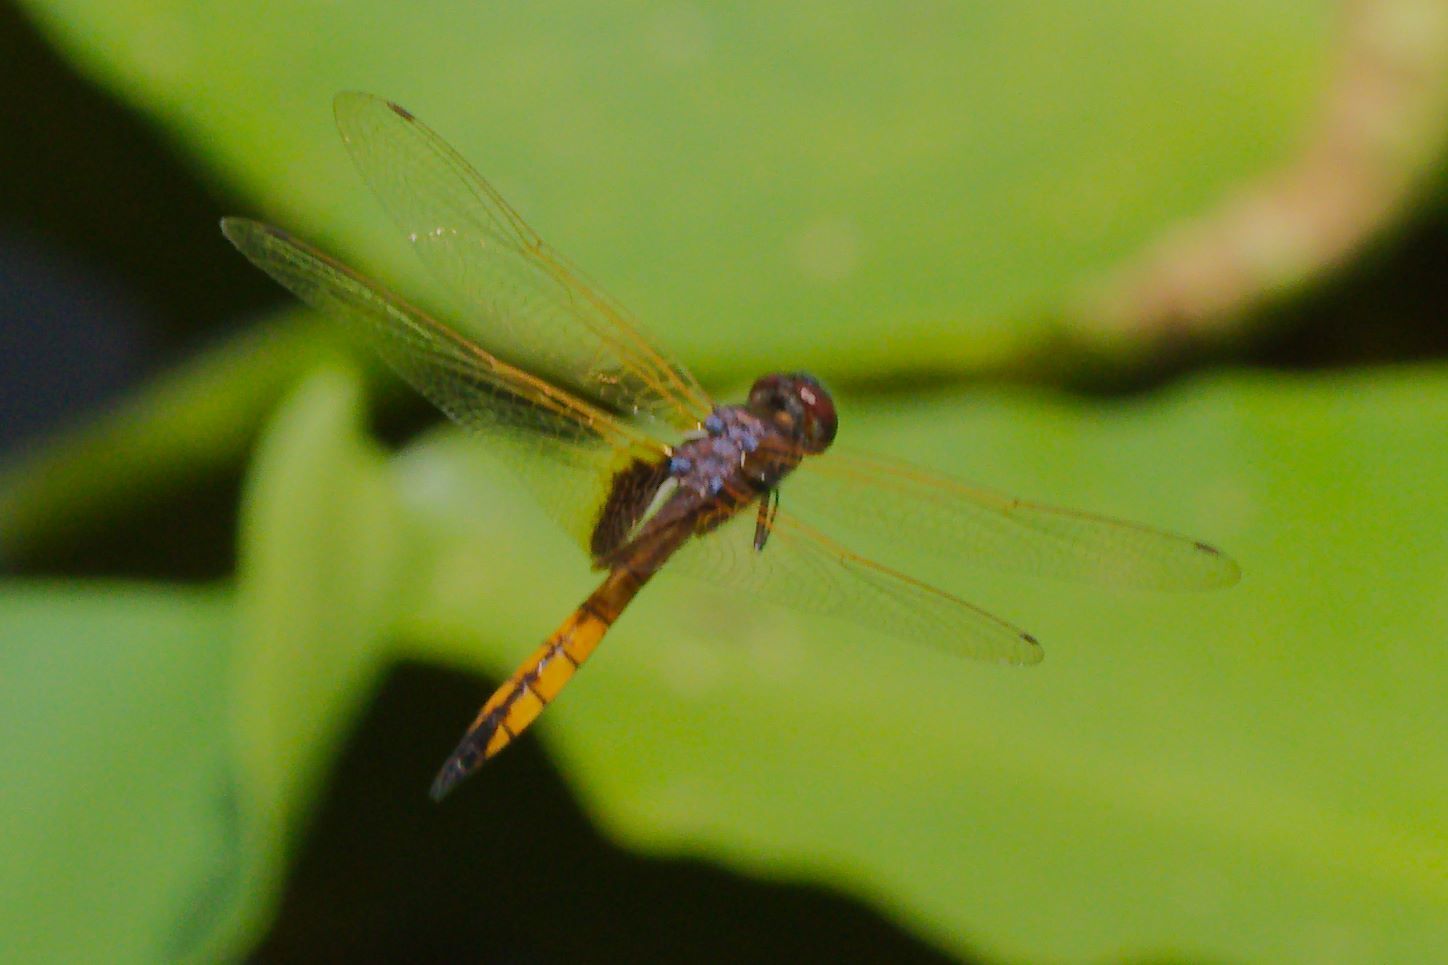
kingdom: Animalia
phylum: Arthropoda
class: Insecta
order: Odonata
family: Libellulidae
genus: Miathyria
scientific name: Miathyria marcella
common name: Hyacinth glider
